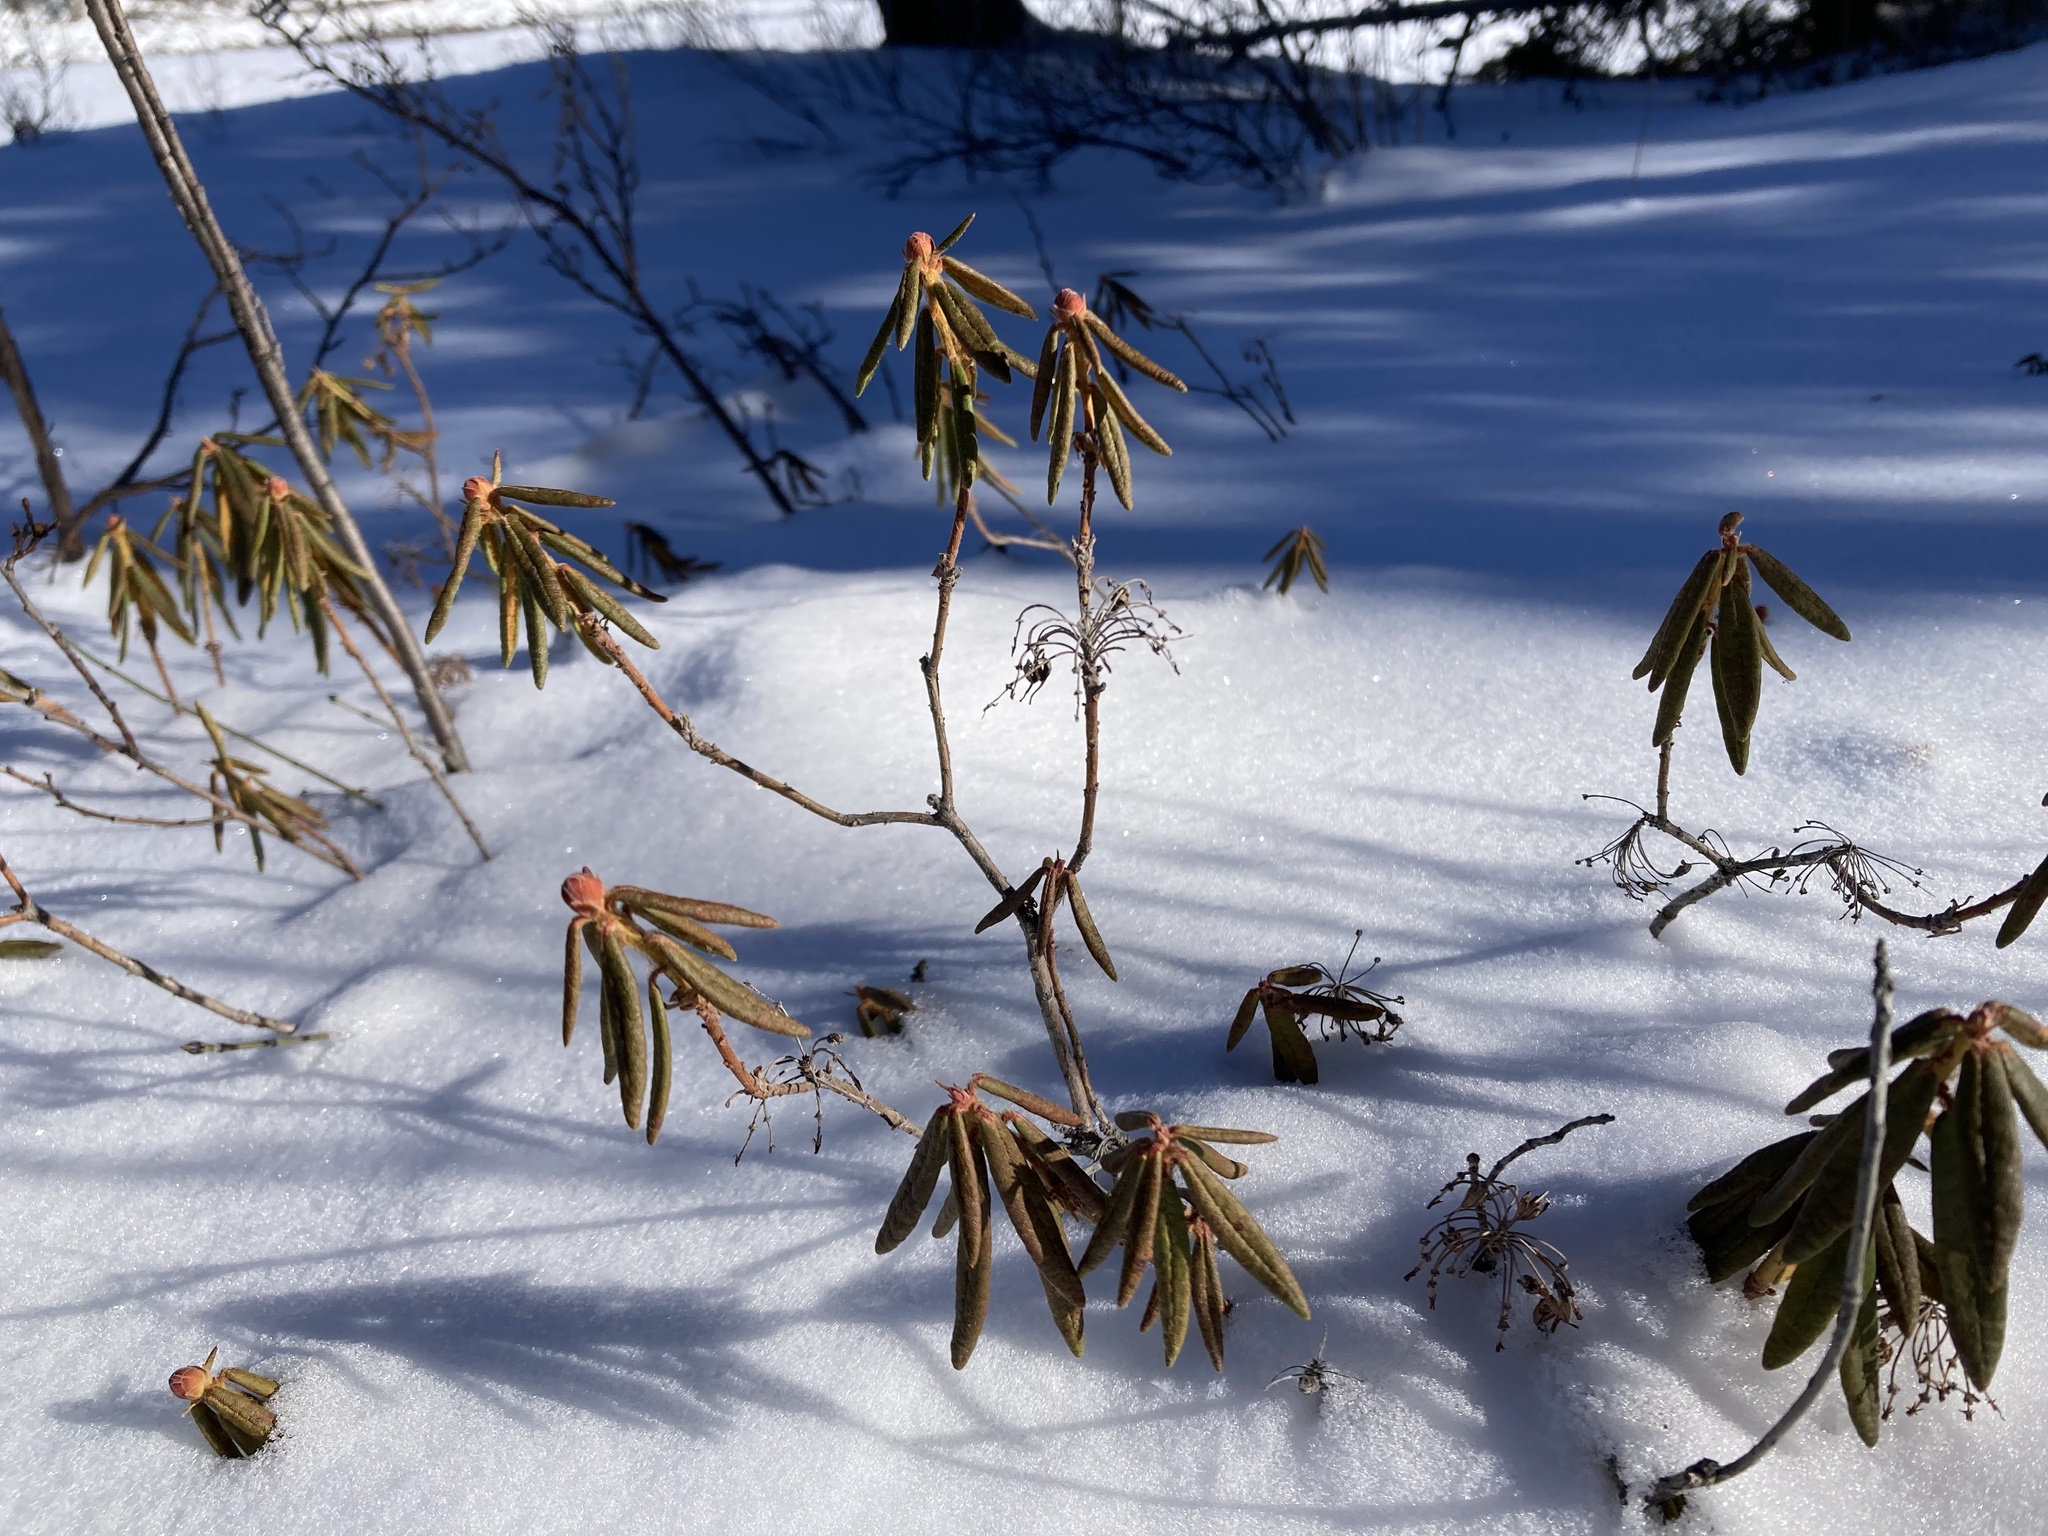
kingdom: Plantae
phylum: Tracheophyta
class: Magnoliopsida
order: Ericales
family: Ericaceae
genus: Rhododendron
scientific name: Rhododendron groenlandicum
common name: Bog labrador tea
